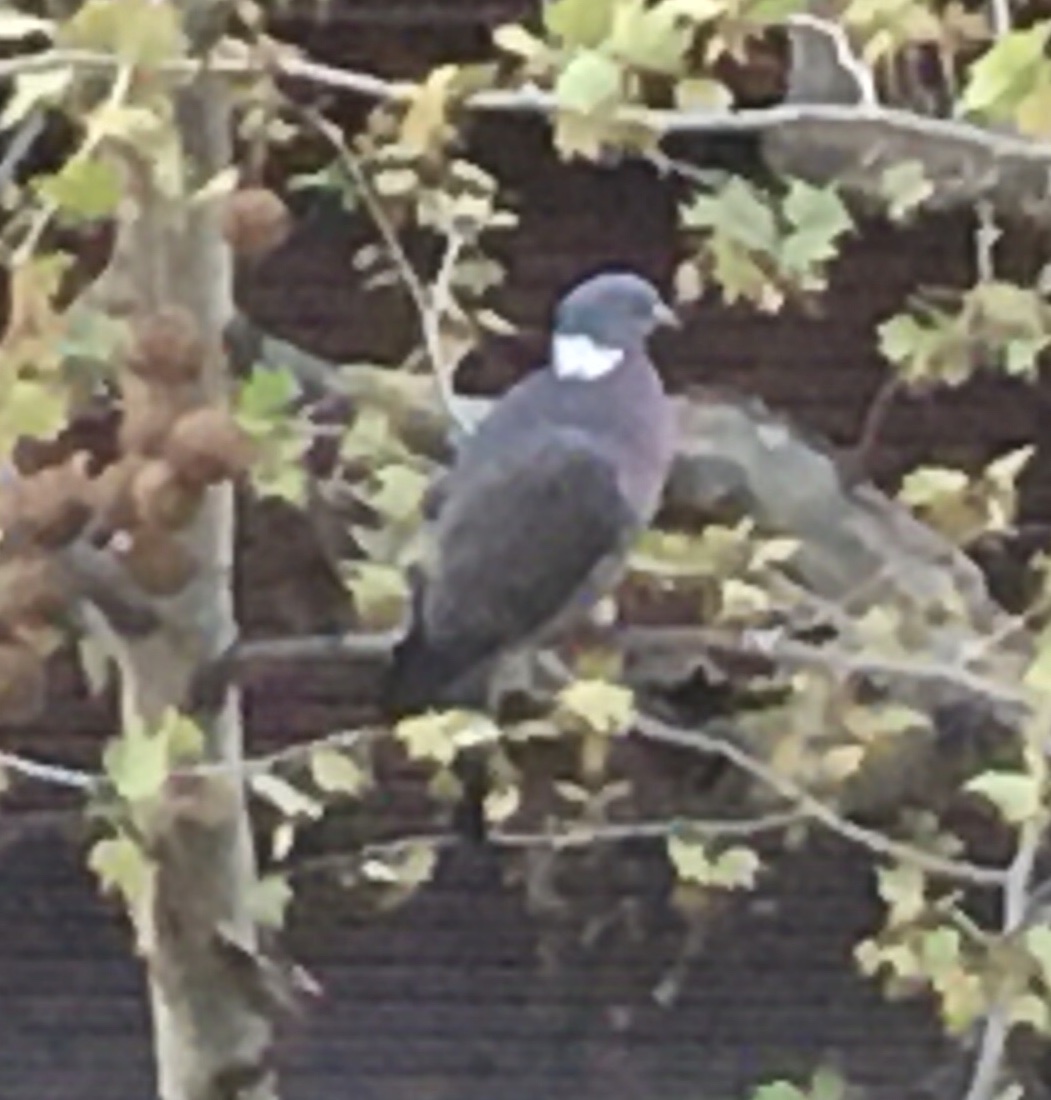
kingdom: Animalia
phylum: Chordata
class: Aves
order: Columbiformes
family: Columbidae
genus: Columba
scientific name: Columba palumbus
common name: Common wood pigeon
